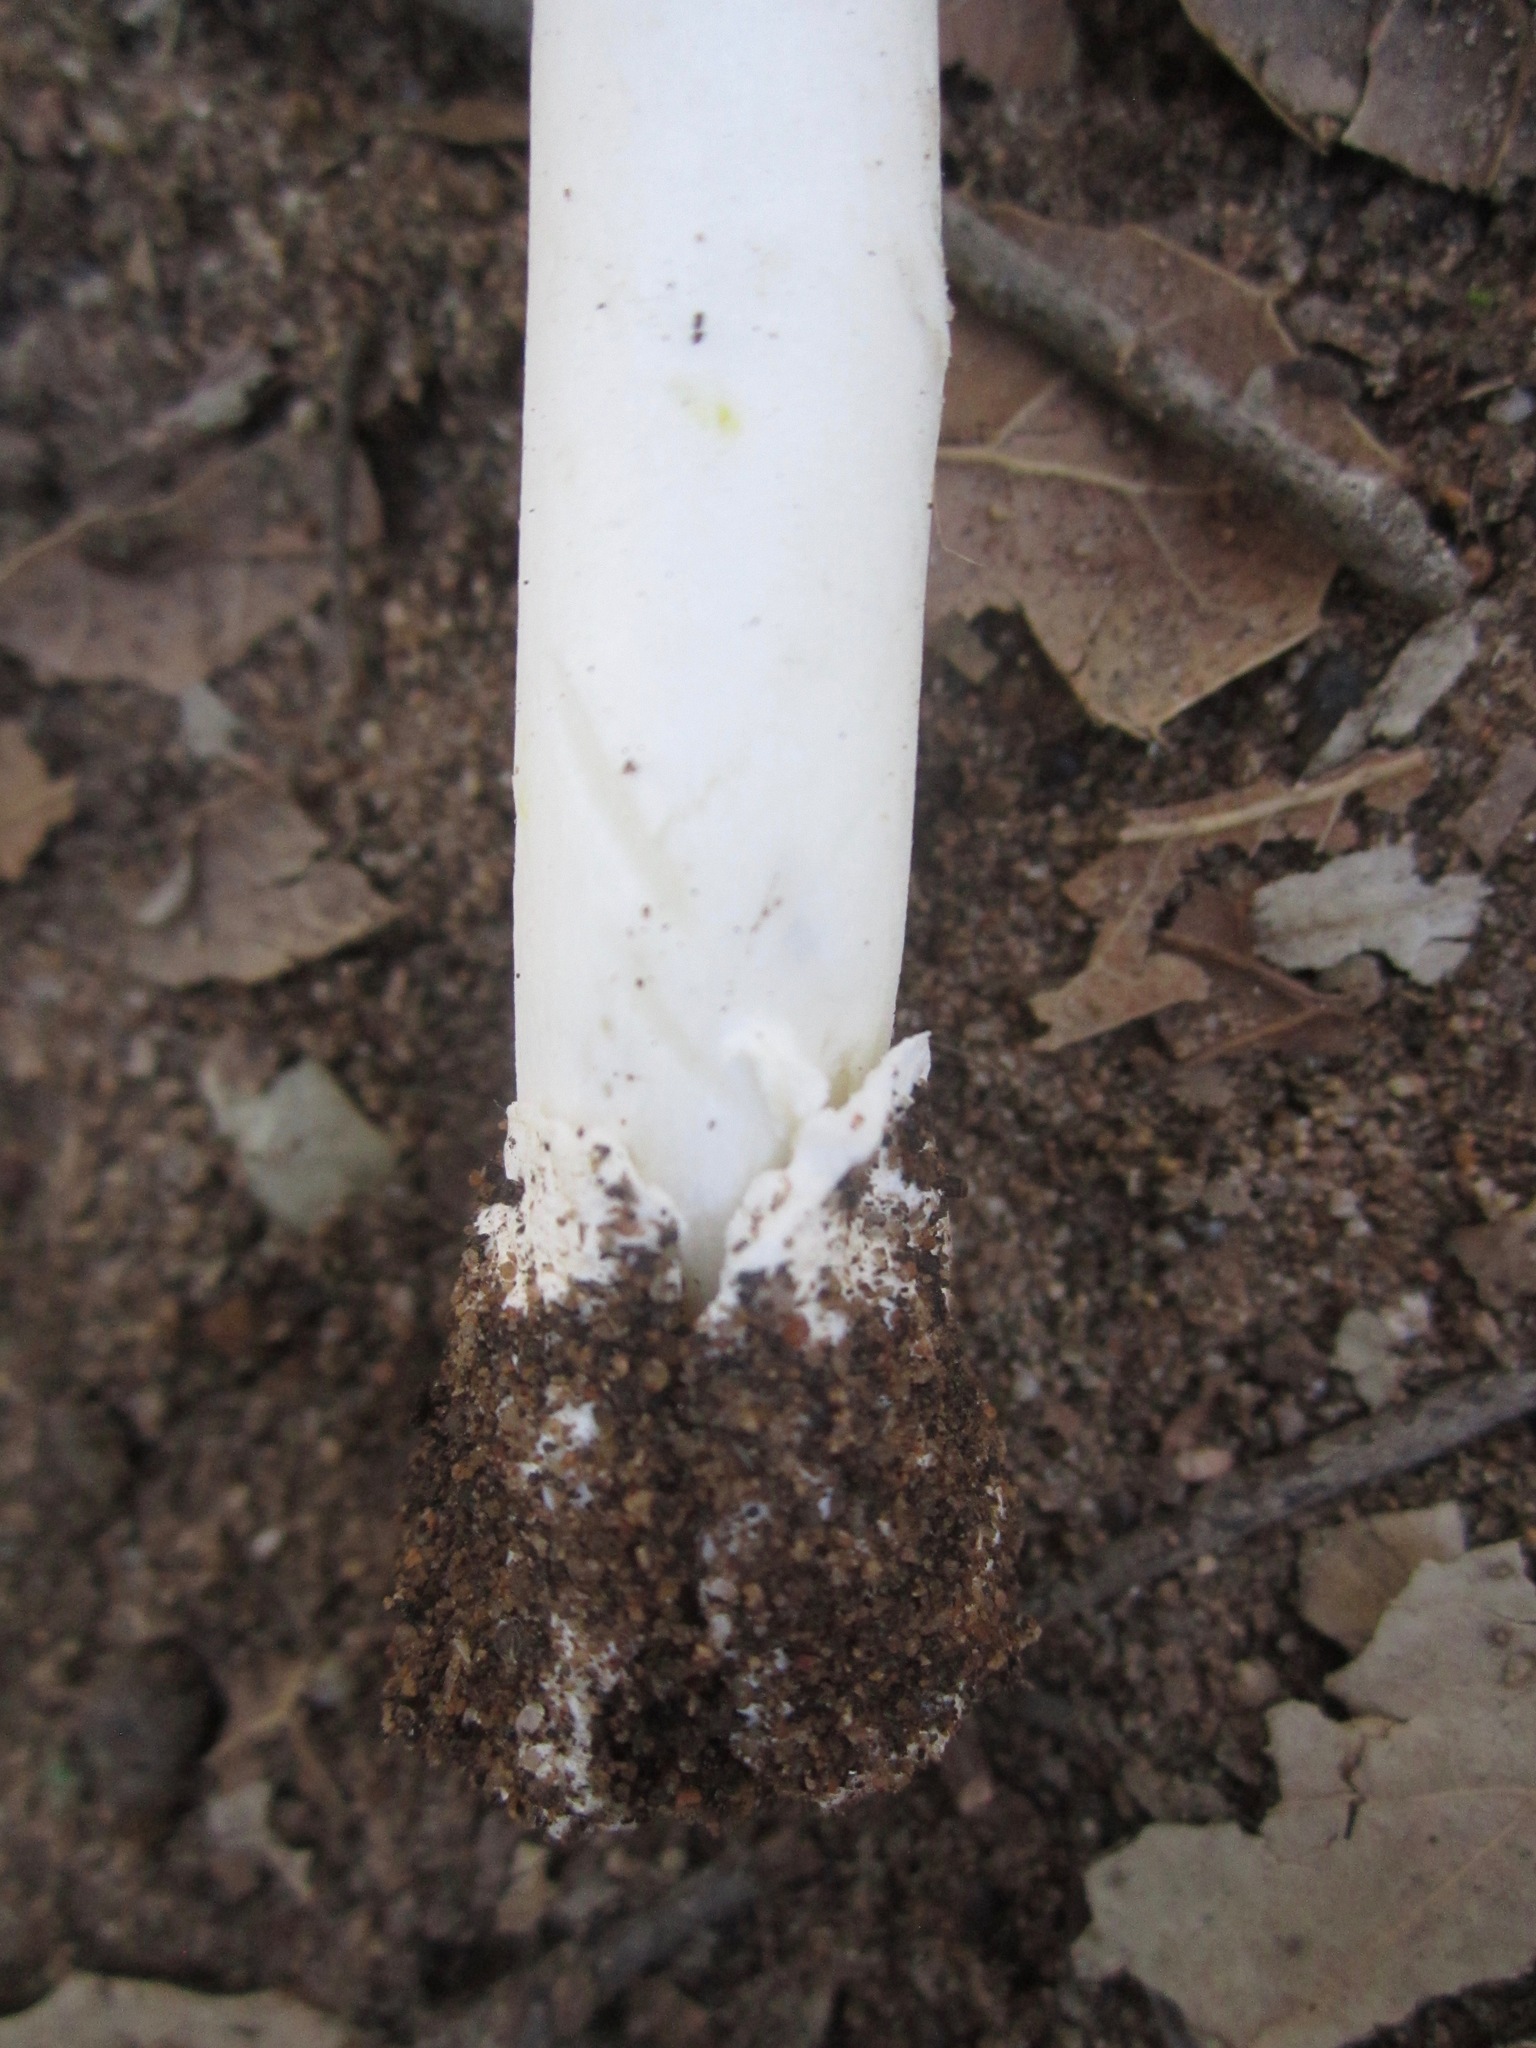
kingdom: Fungi
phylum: Basidiomycota
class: Agaricomycetes
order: Agaricales
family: Amanitaceae
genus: Amanita
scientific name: Amanita calyptratoides
